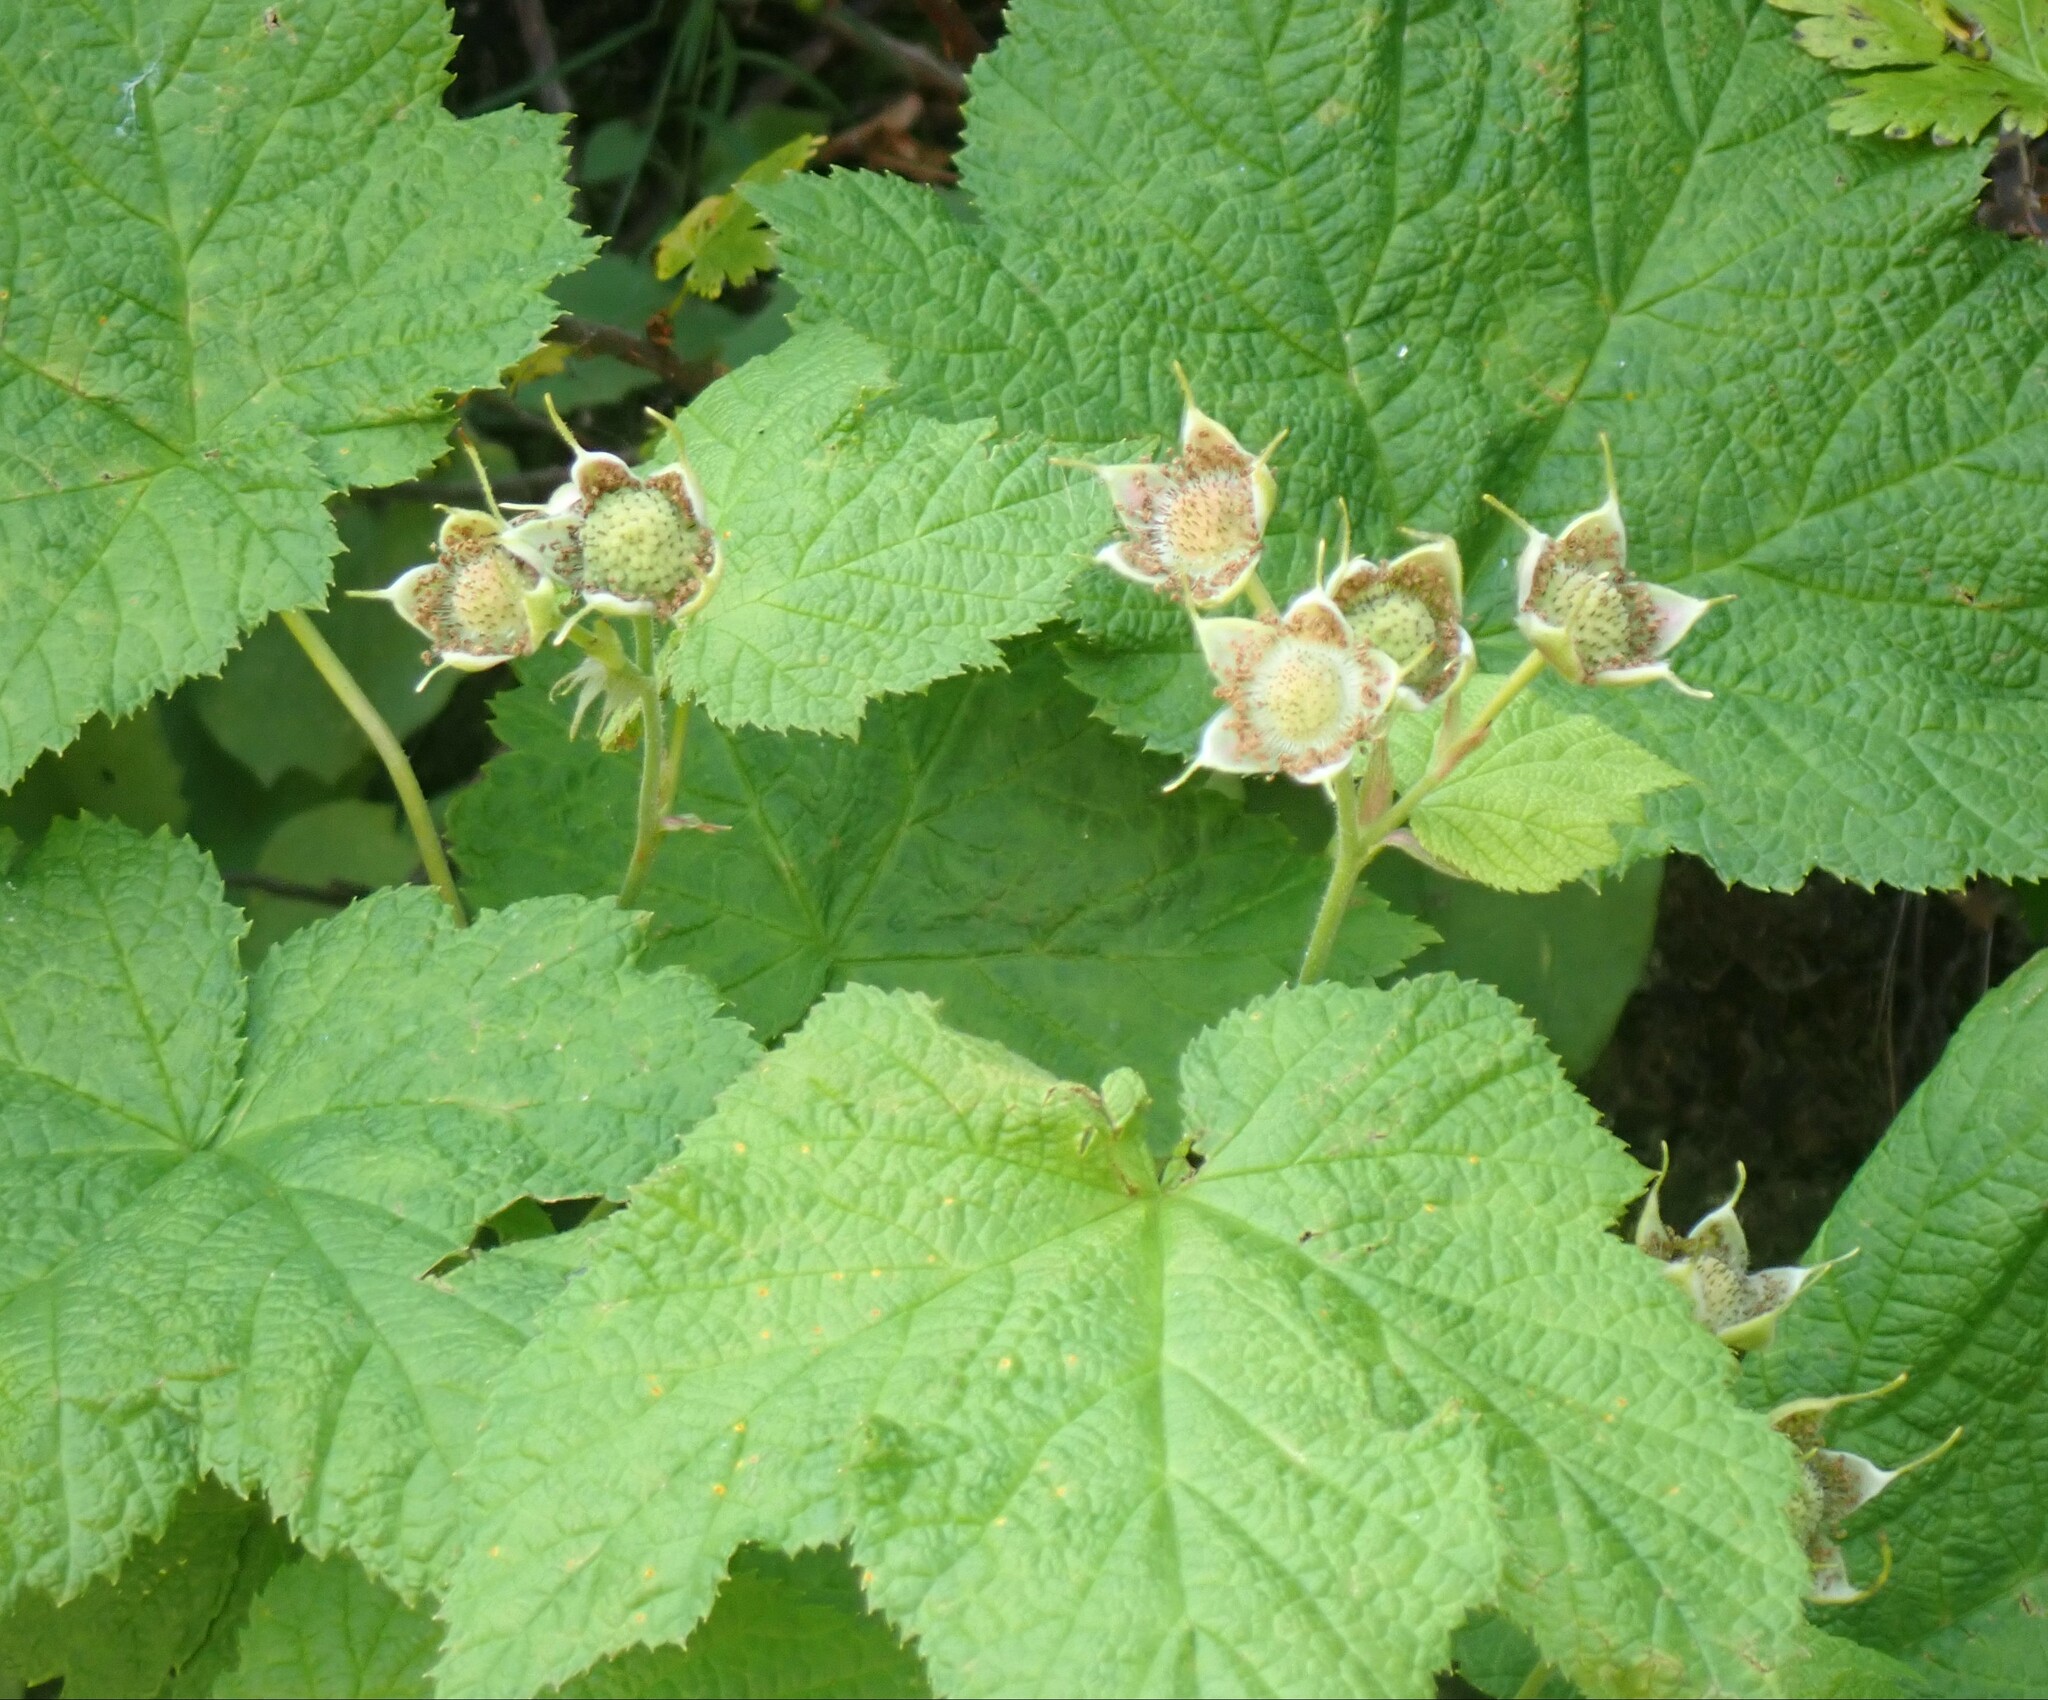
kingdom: Plantae
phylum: Tracheophyta
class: Magnoliopsida
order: Rosales
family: Rosaceae
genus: Rubus
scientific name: Rubus parviflorus
